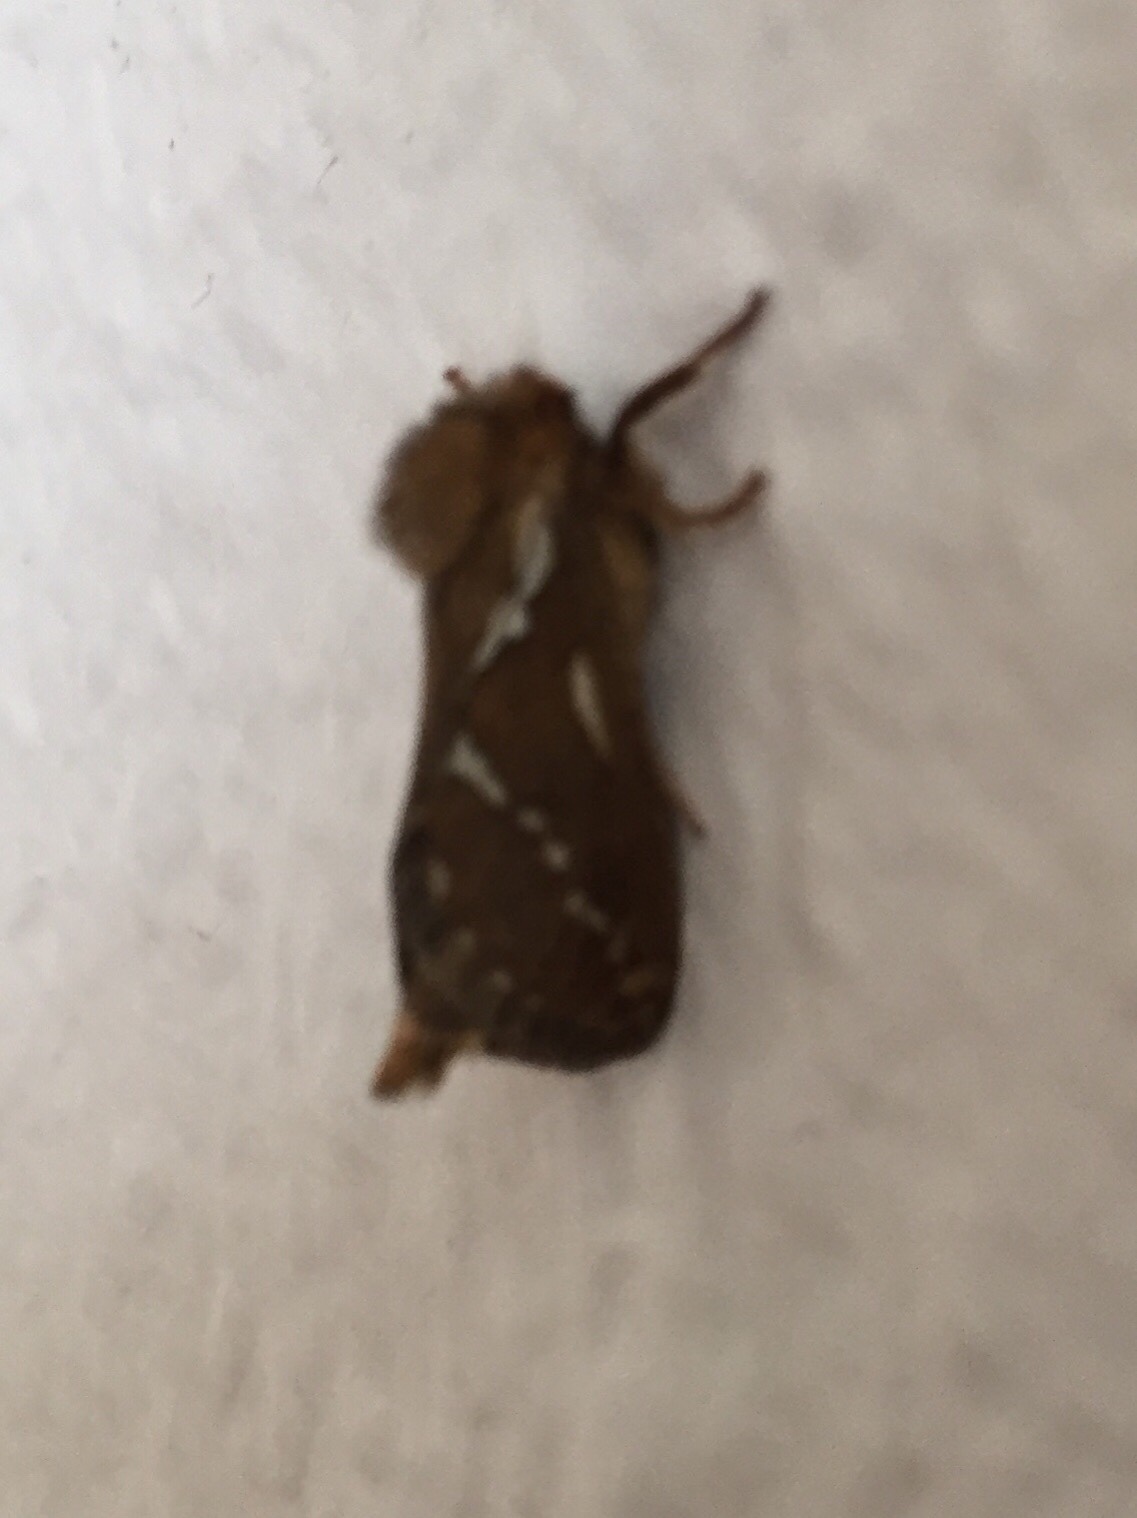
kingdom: Animalia
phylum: Arthropoda
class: Insecta
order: Lepidoptera
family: Hepialidae
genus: Korscheltellus
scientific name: Korscheltellus lupulina
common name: Common swift
